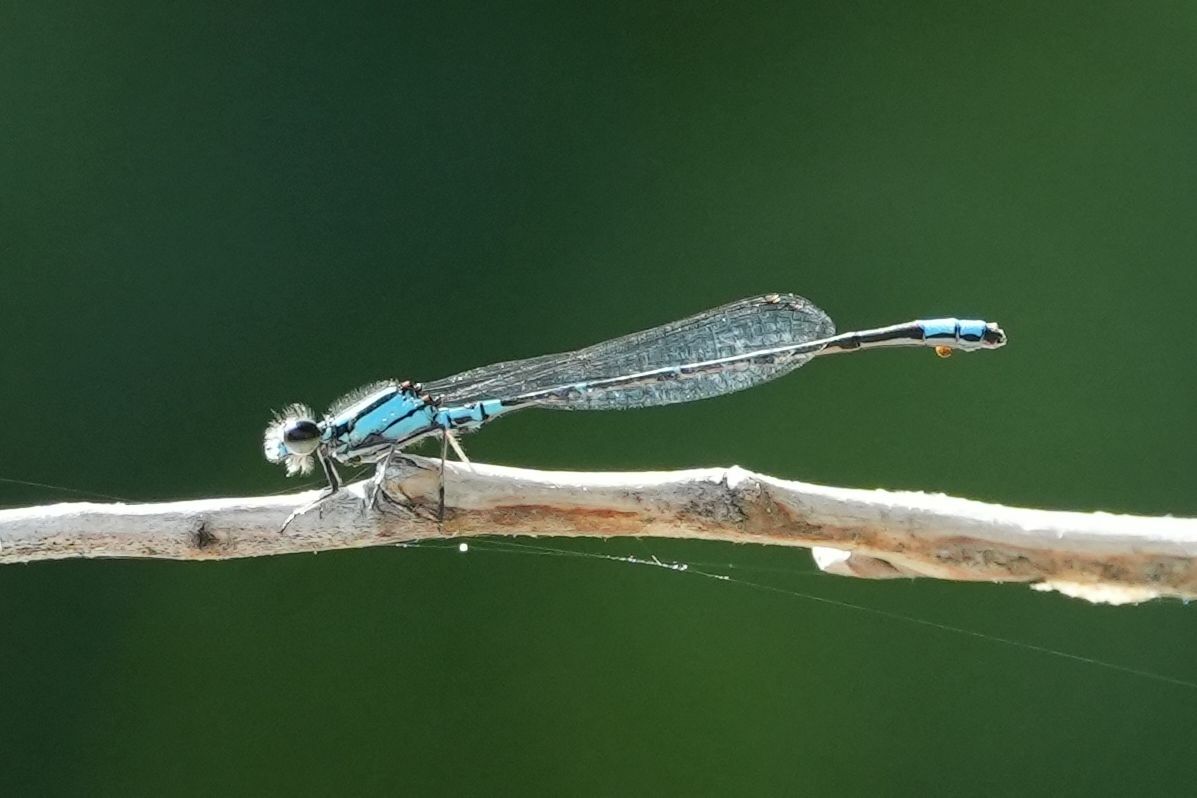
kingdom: Animalia
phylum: Arthropoda
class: Insecta
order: Odonata
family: Coenagrionidae
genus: Enallagma
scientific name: Enallagma geminatum
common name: Skimming bluet
